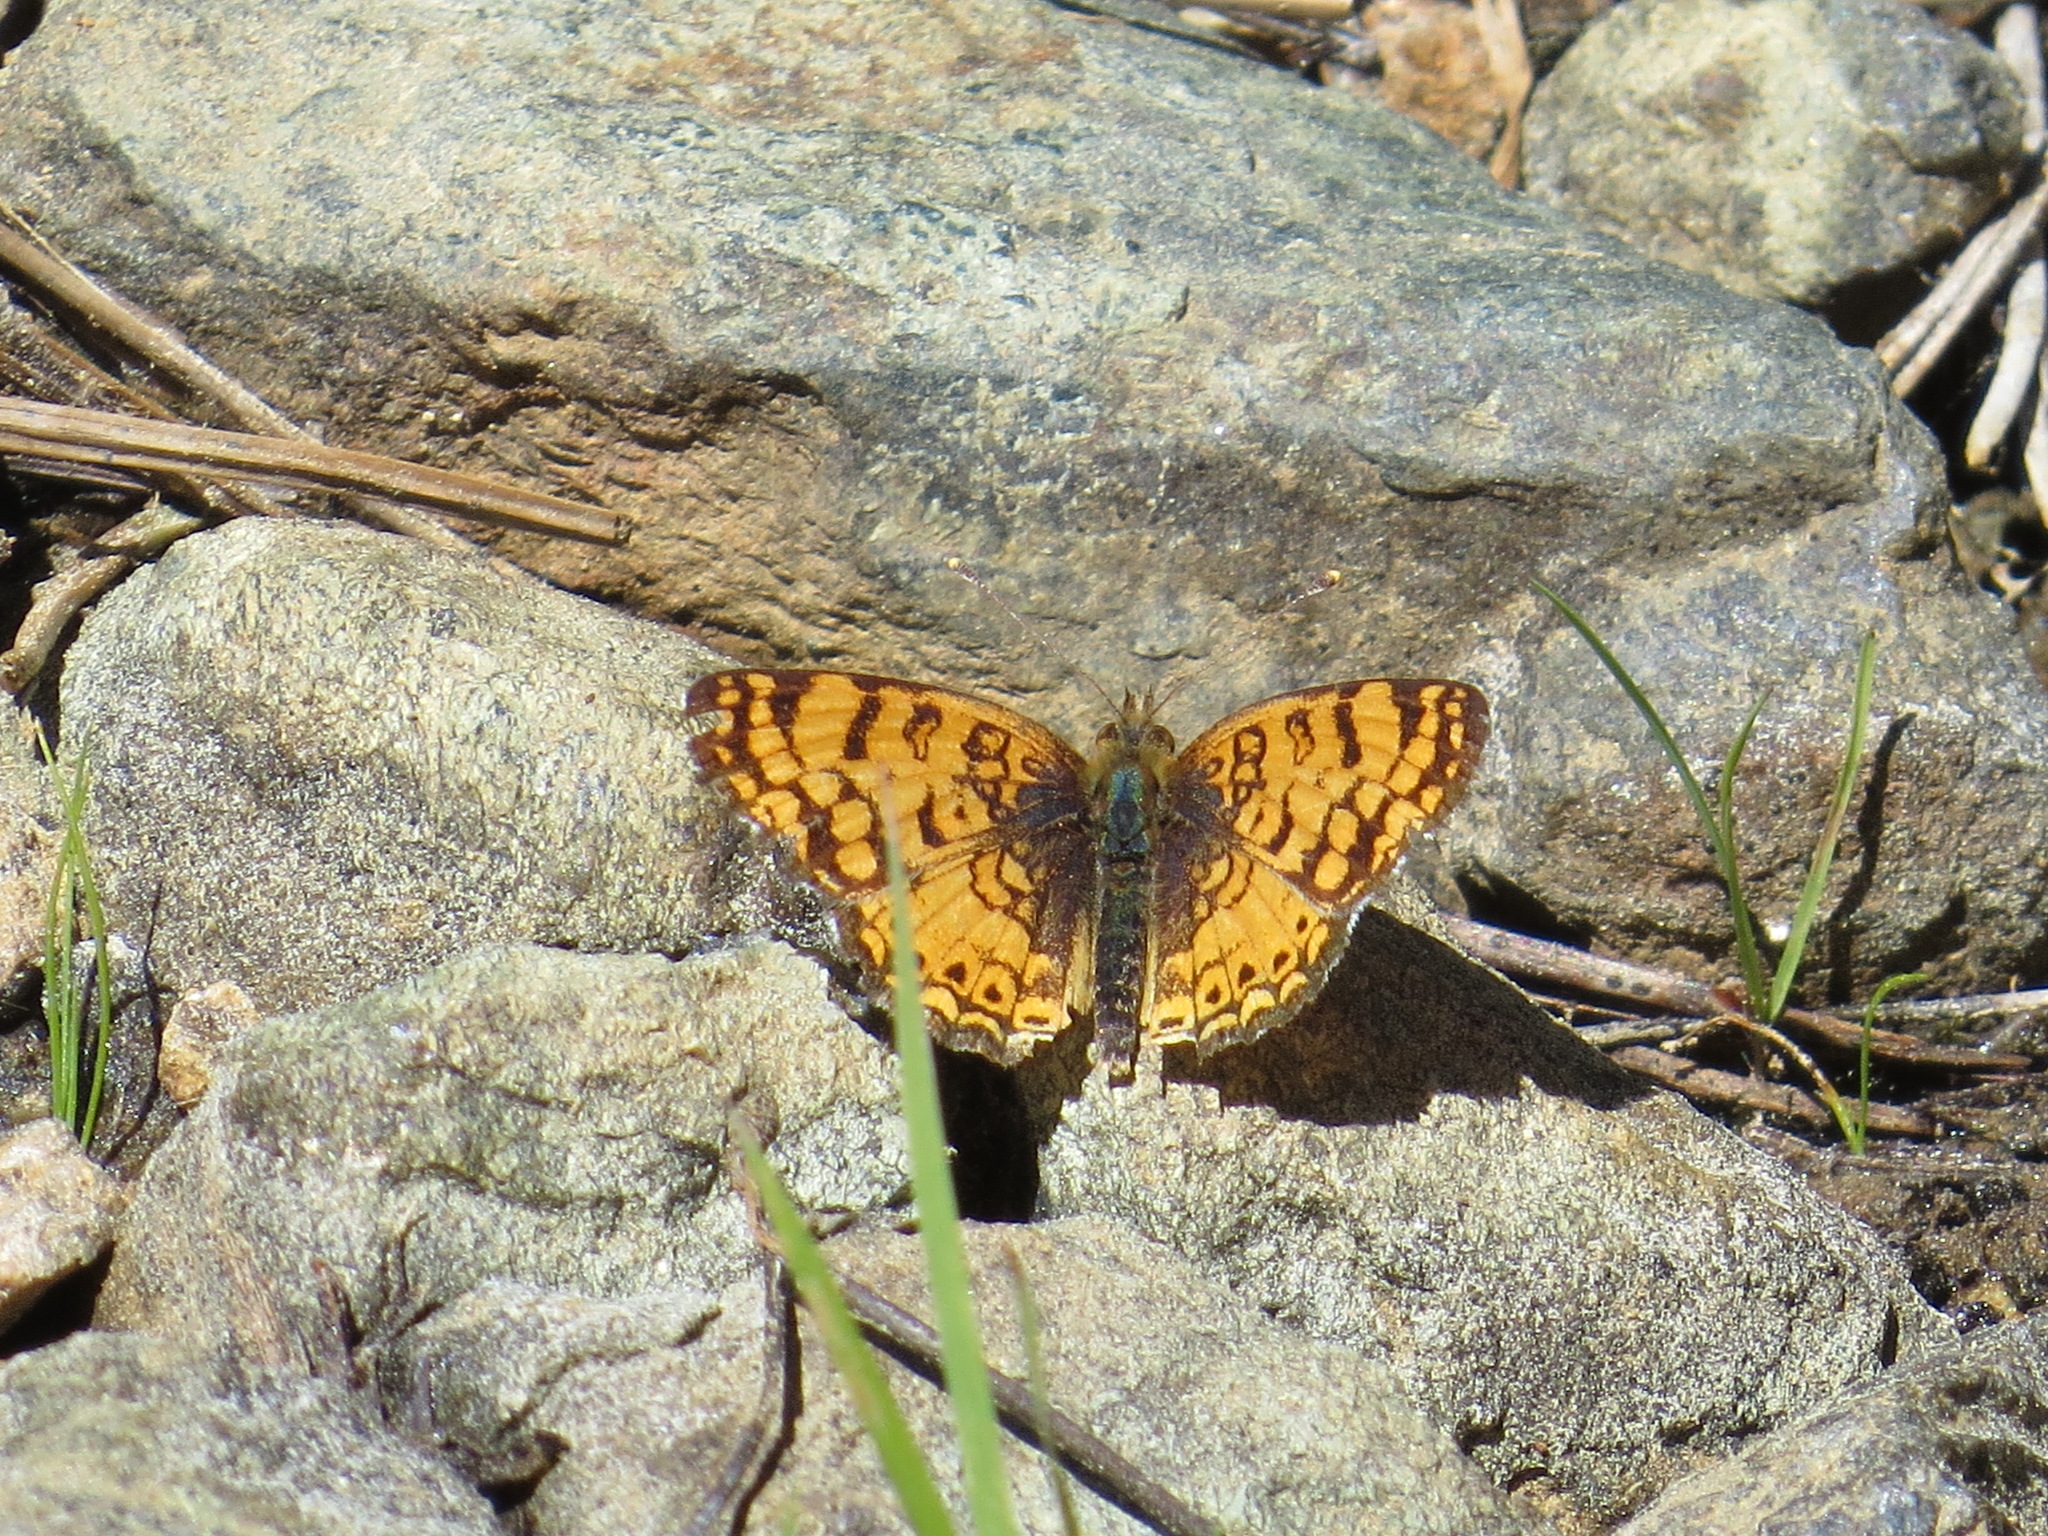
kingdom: Animalia
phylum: Arthropoda
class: Insecta
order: Lepidoptera
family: Nymphalidae
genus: Eresia
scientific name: Eresia aveyrona
